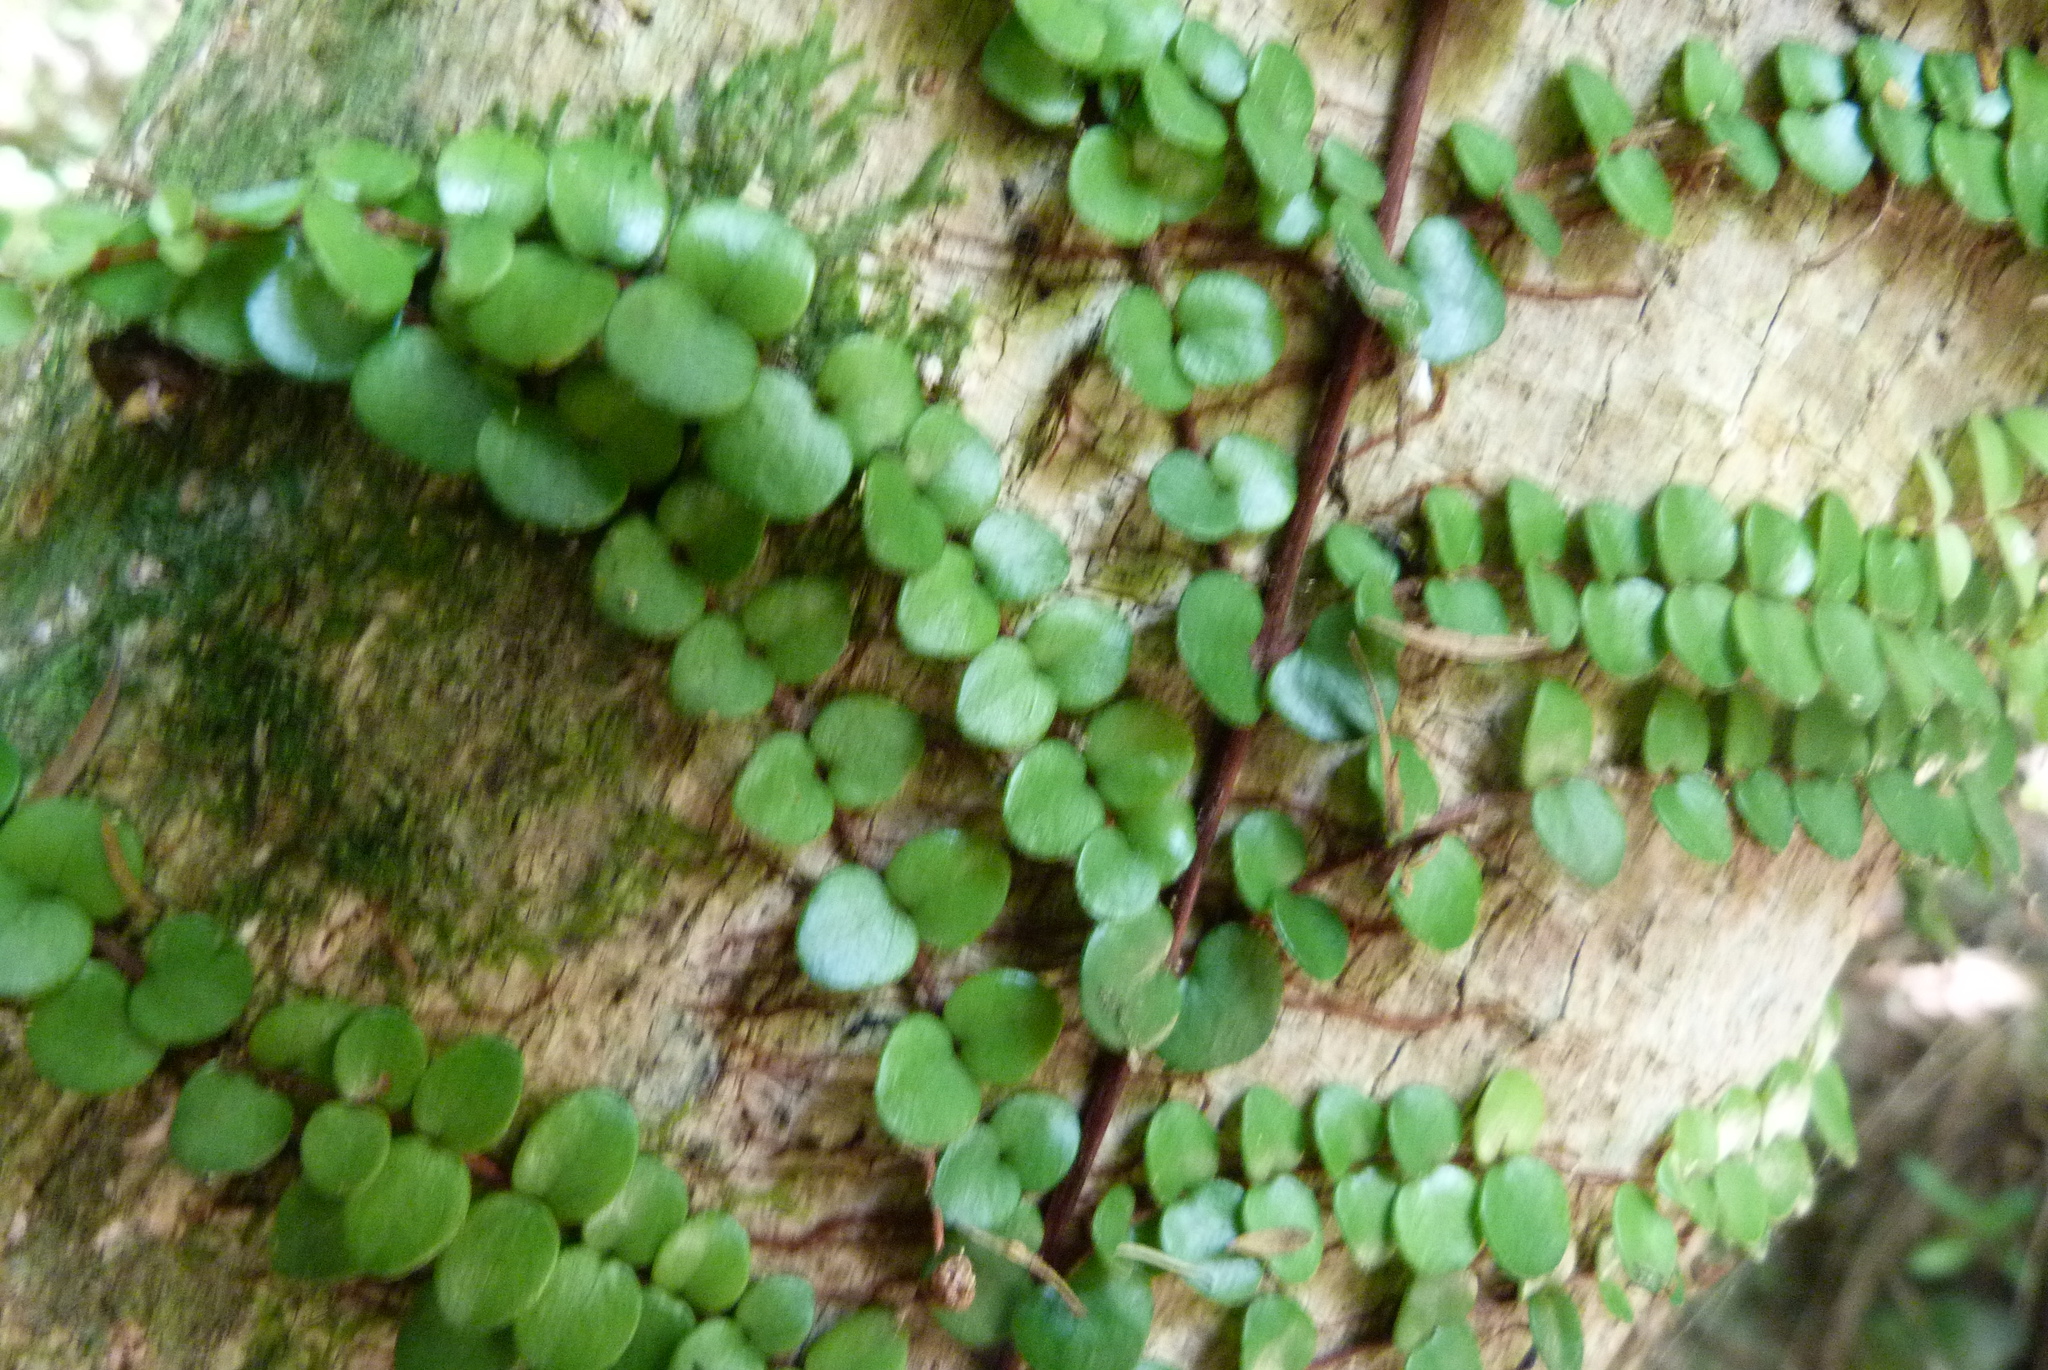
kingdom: Plantae
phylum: Tracheophyta
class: Magnoliopsida
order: Myrtales
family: Myrtaceae
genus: Metrosideros
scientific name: Metrosideros perforata
